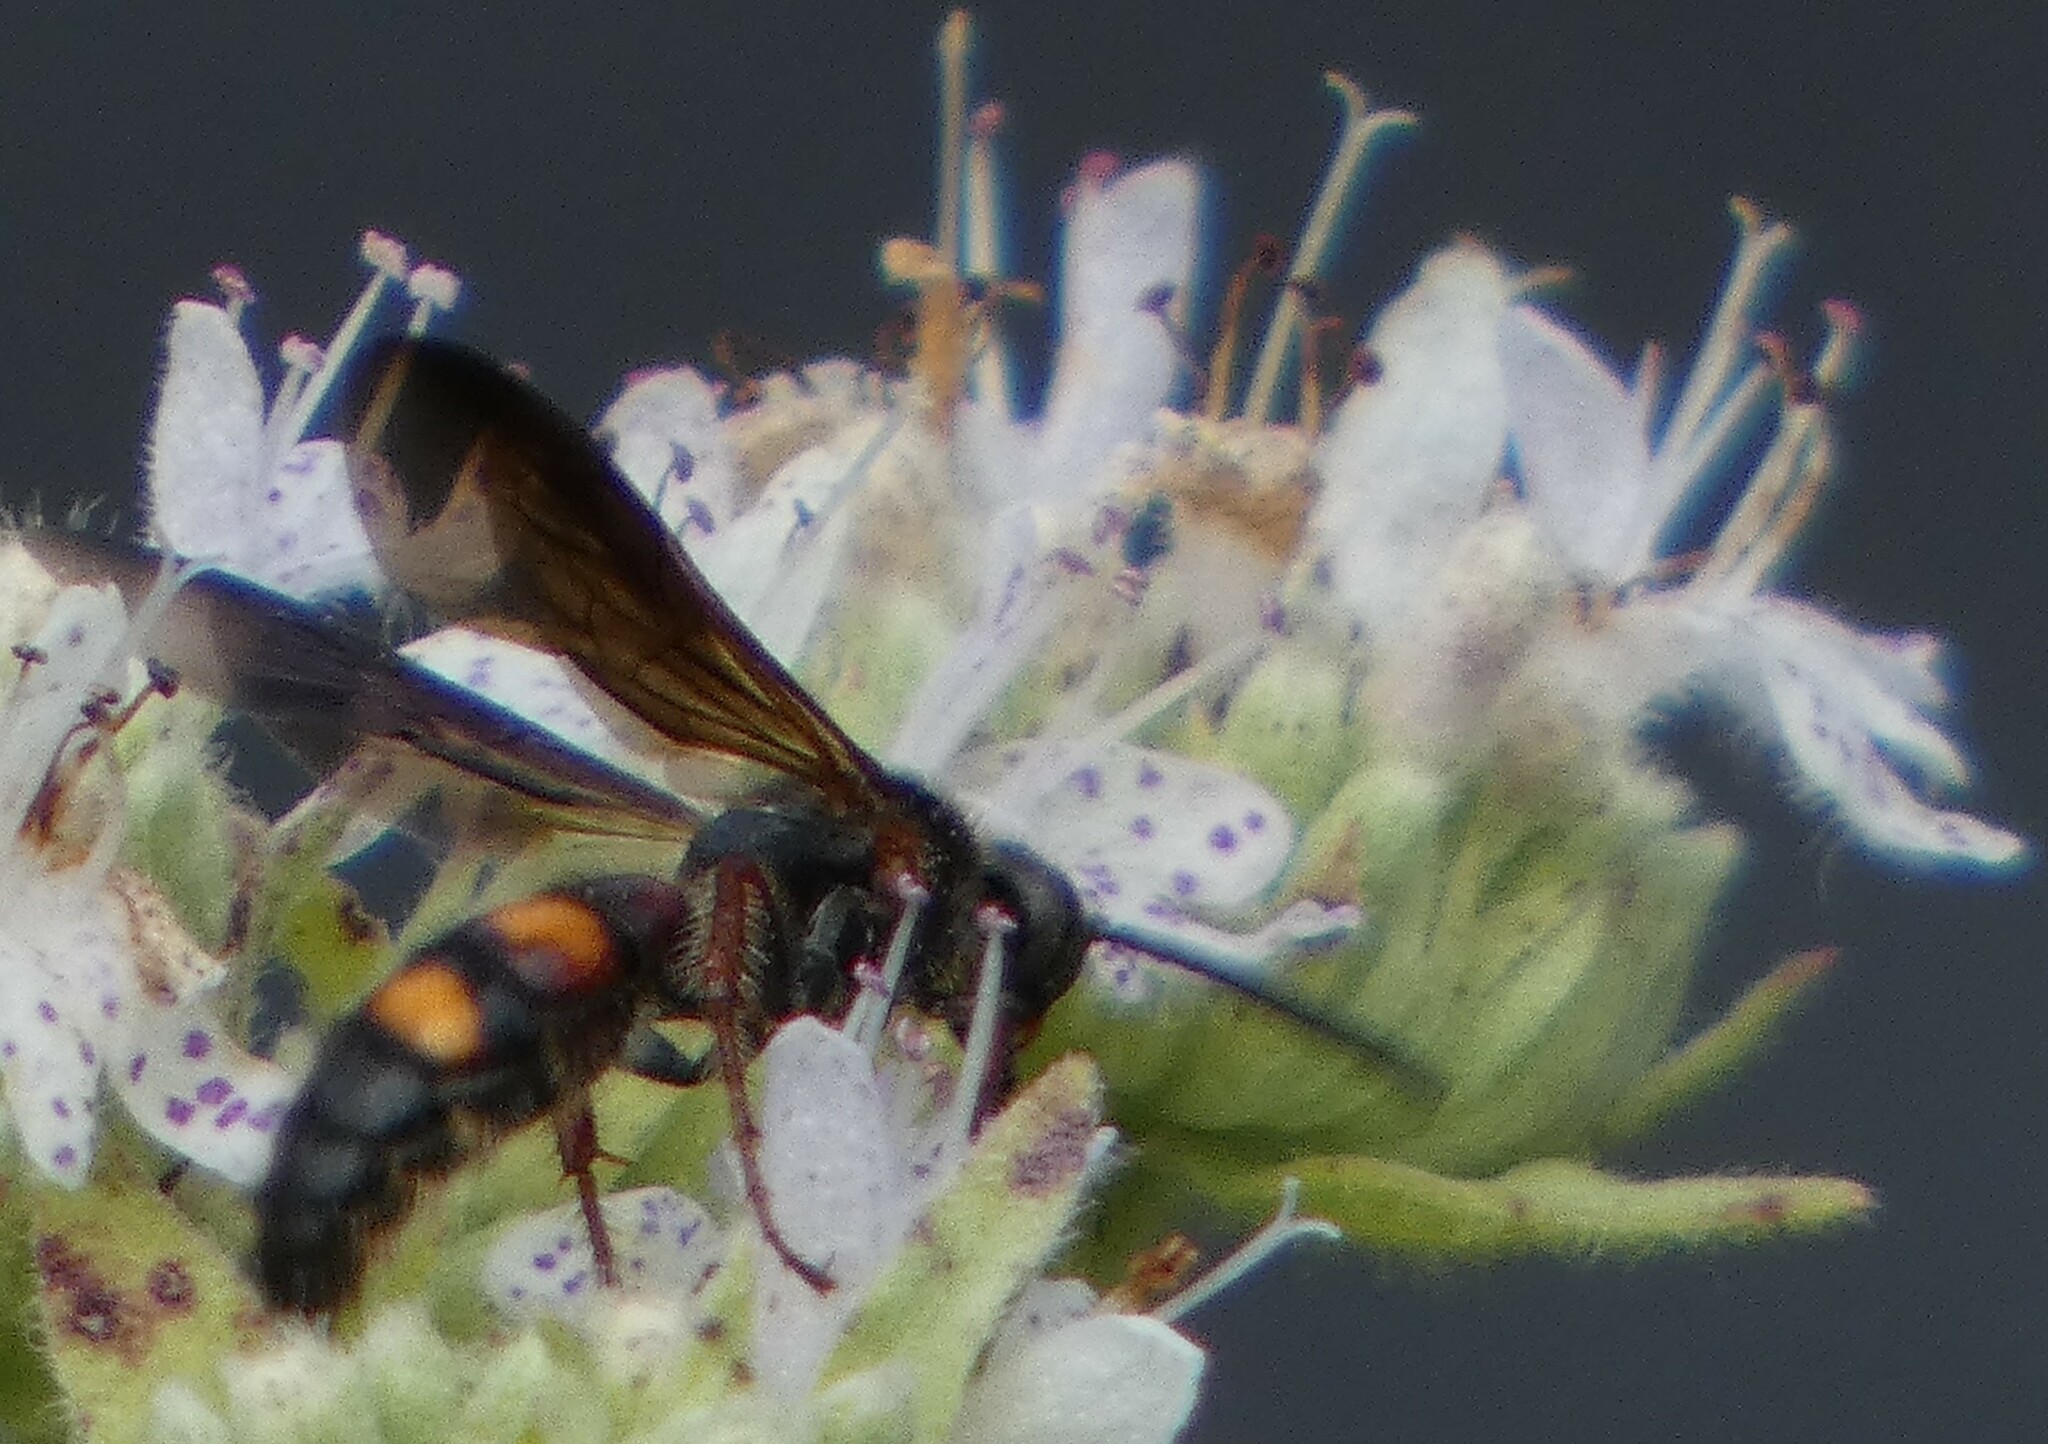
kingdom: Animalia
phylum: Arthropoda
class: Insecta
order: Hymenoptera
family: Scoliidae
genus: Scolia
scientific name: Scolia nobilitata
